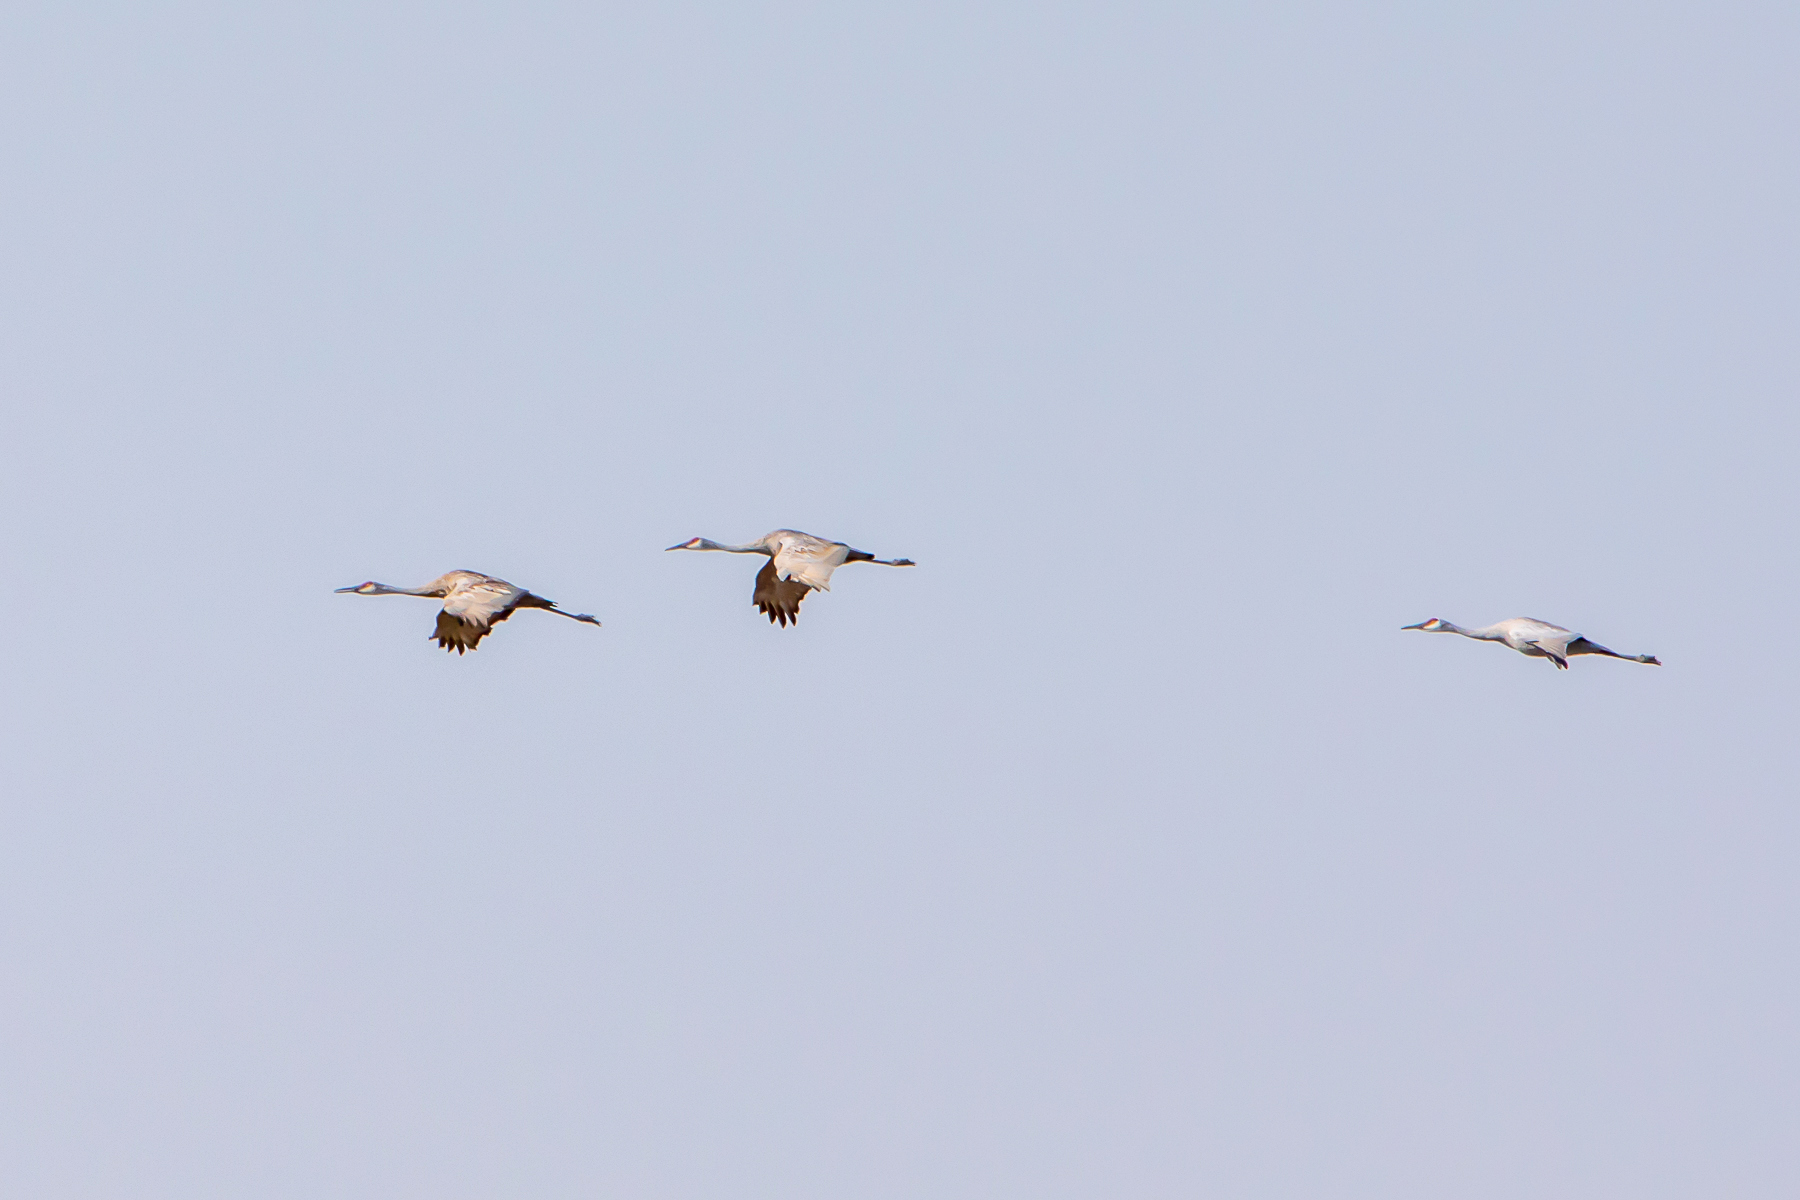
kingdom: Animalia
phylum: Chordata
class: Aves
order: Gruiformes
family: Gruidae
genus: Grus
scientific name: Grus canadensis
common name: Sandhill crane
